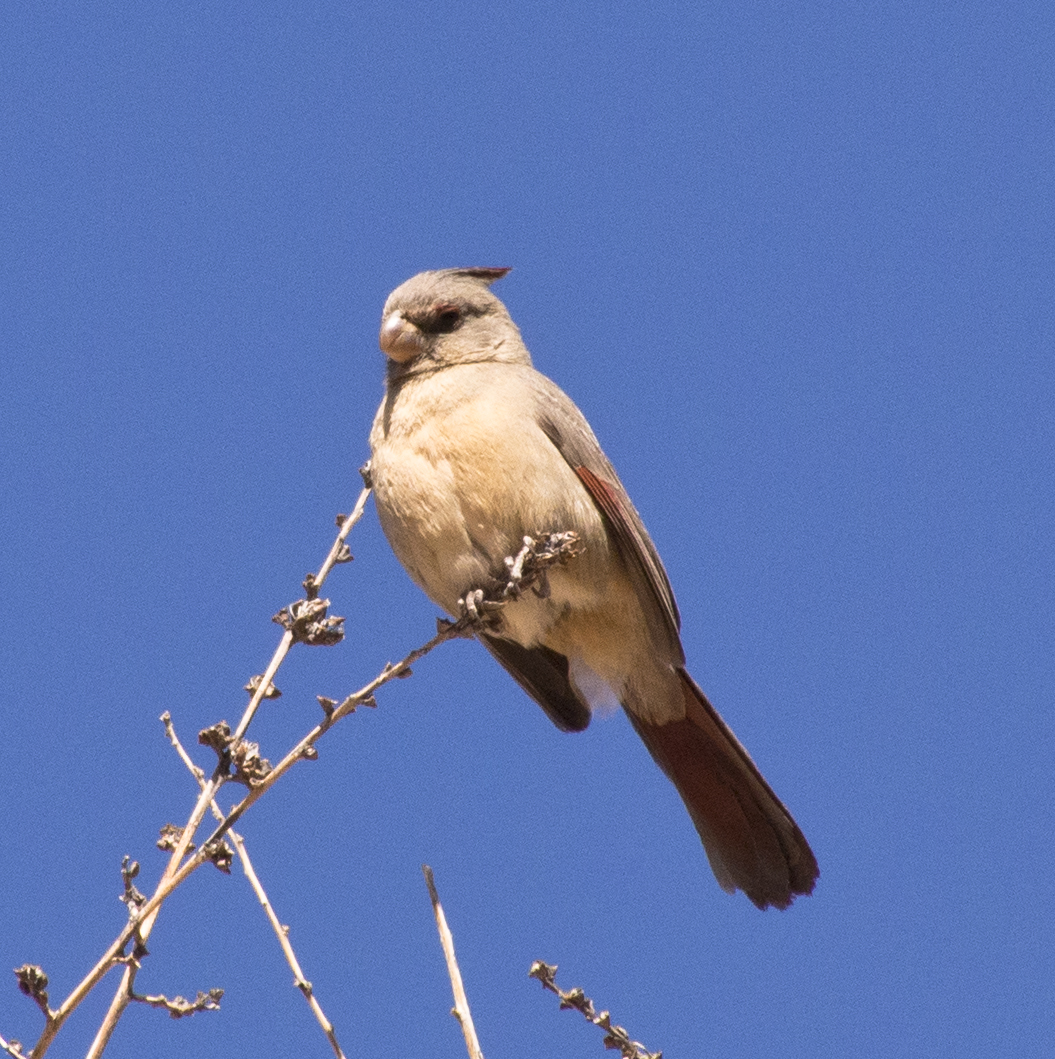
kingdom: Animalia
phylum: Chordata
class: Aves
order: Passeriformes
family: Cardinalidae
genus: Cardinalis
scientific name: Cardinalis sinuatus
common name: Pyrrhuloxia
